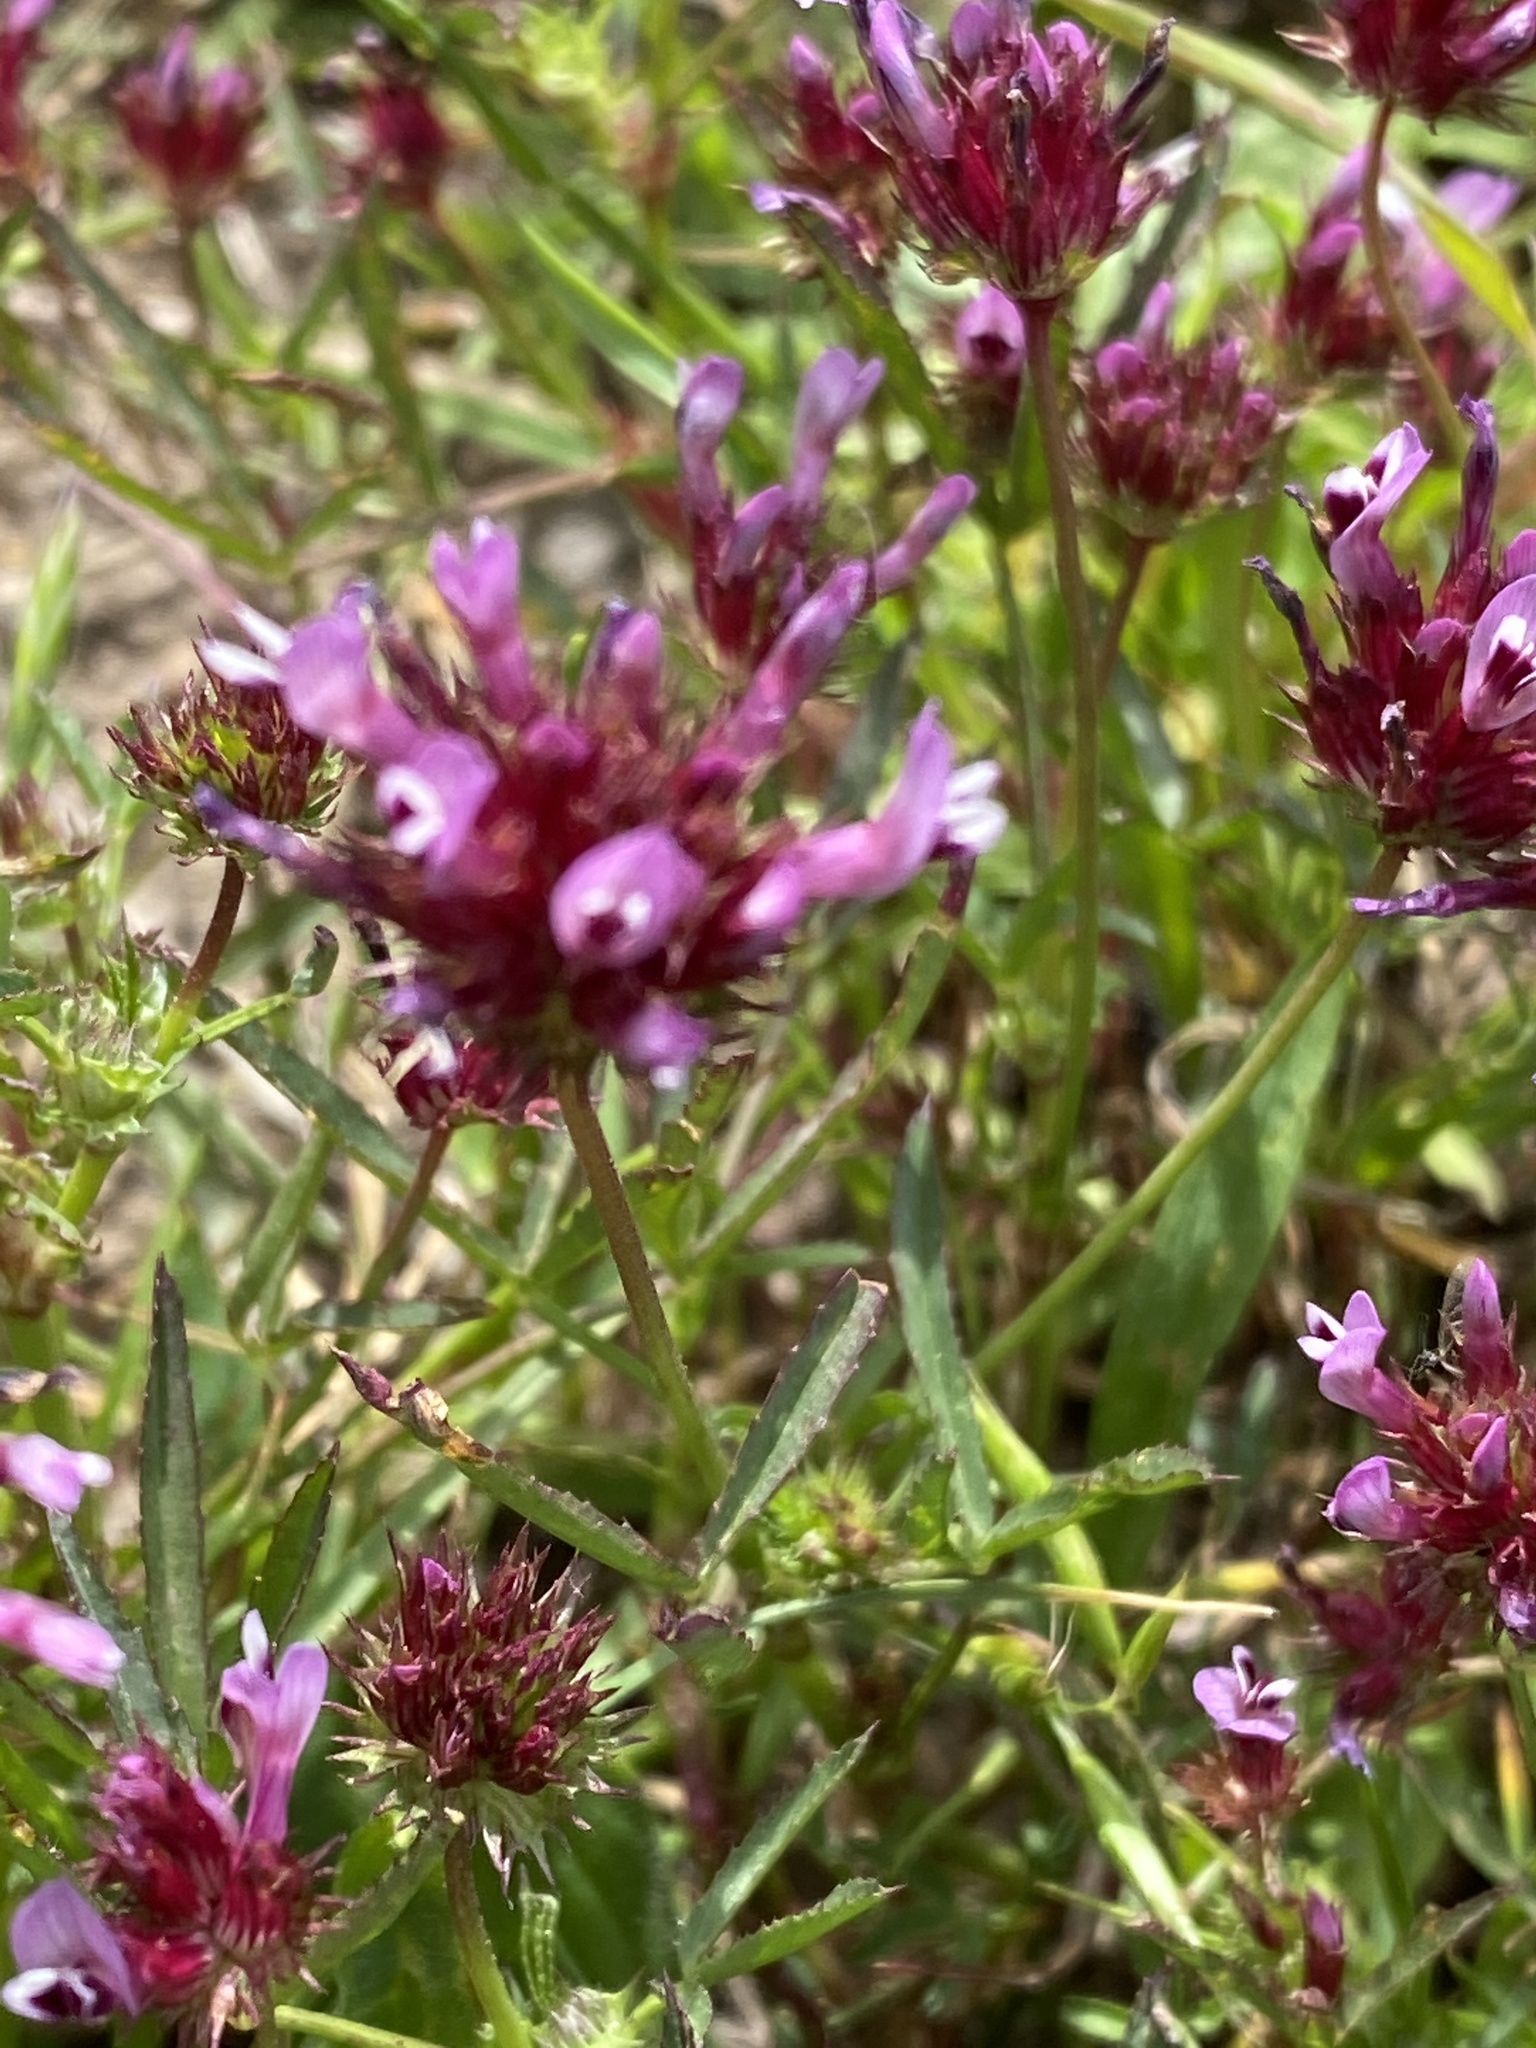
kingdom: Plantae
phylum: Tracheophyta
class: Magnoliopsida
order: Fabales
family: Fabaceae
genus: Trifolium
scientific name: Trifolium willdenovii
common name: Tomcat clover
